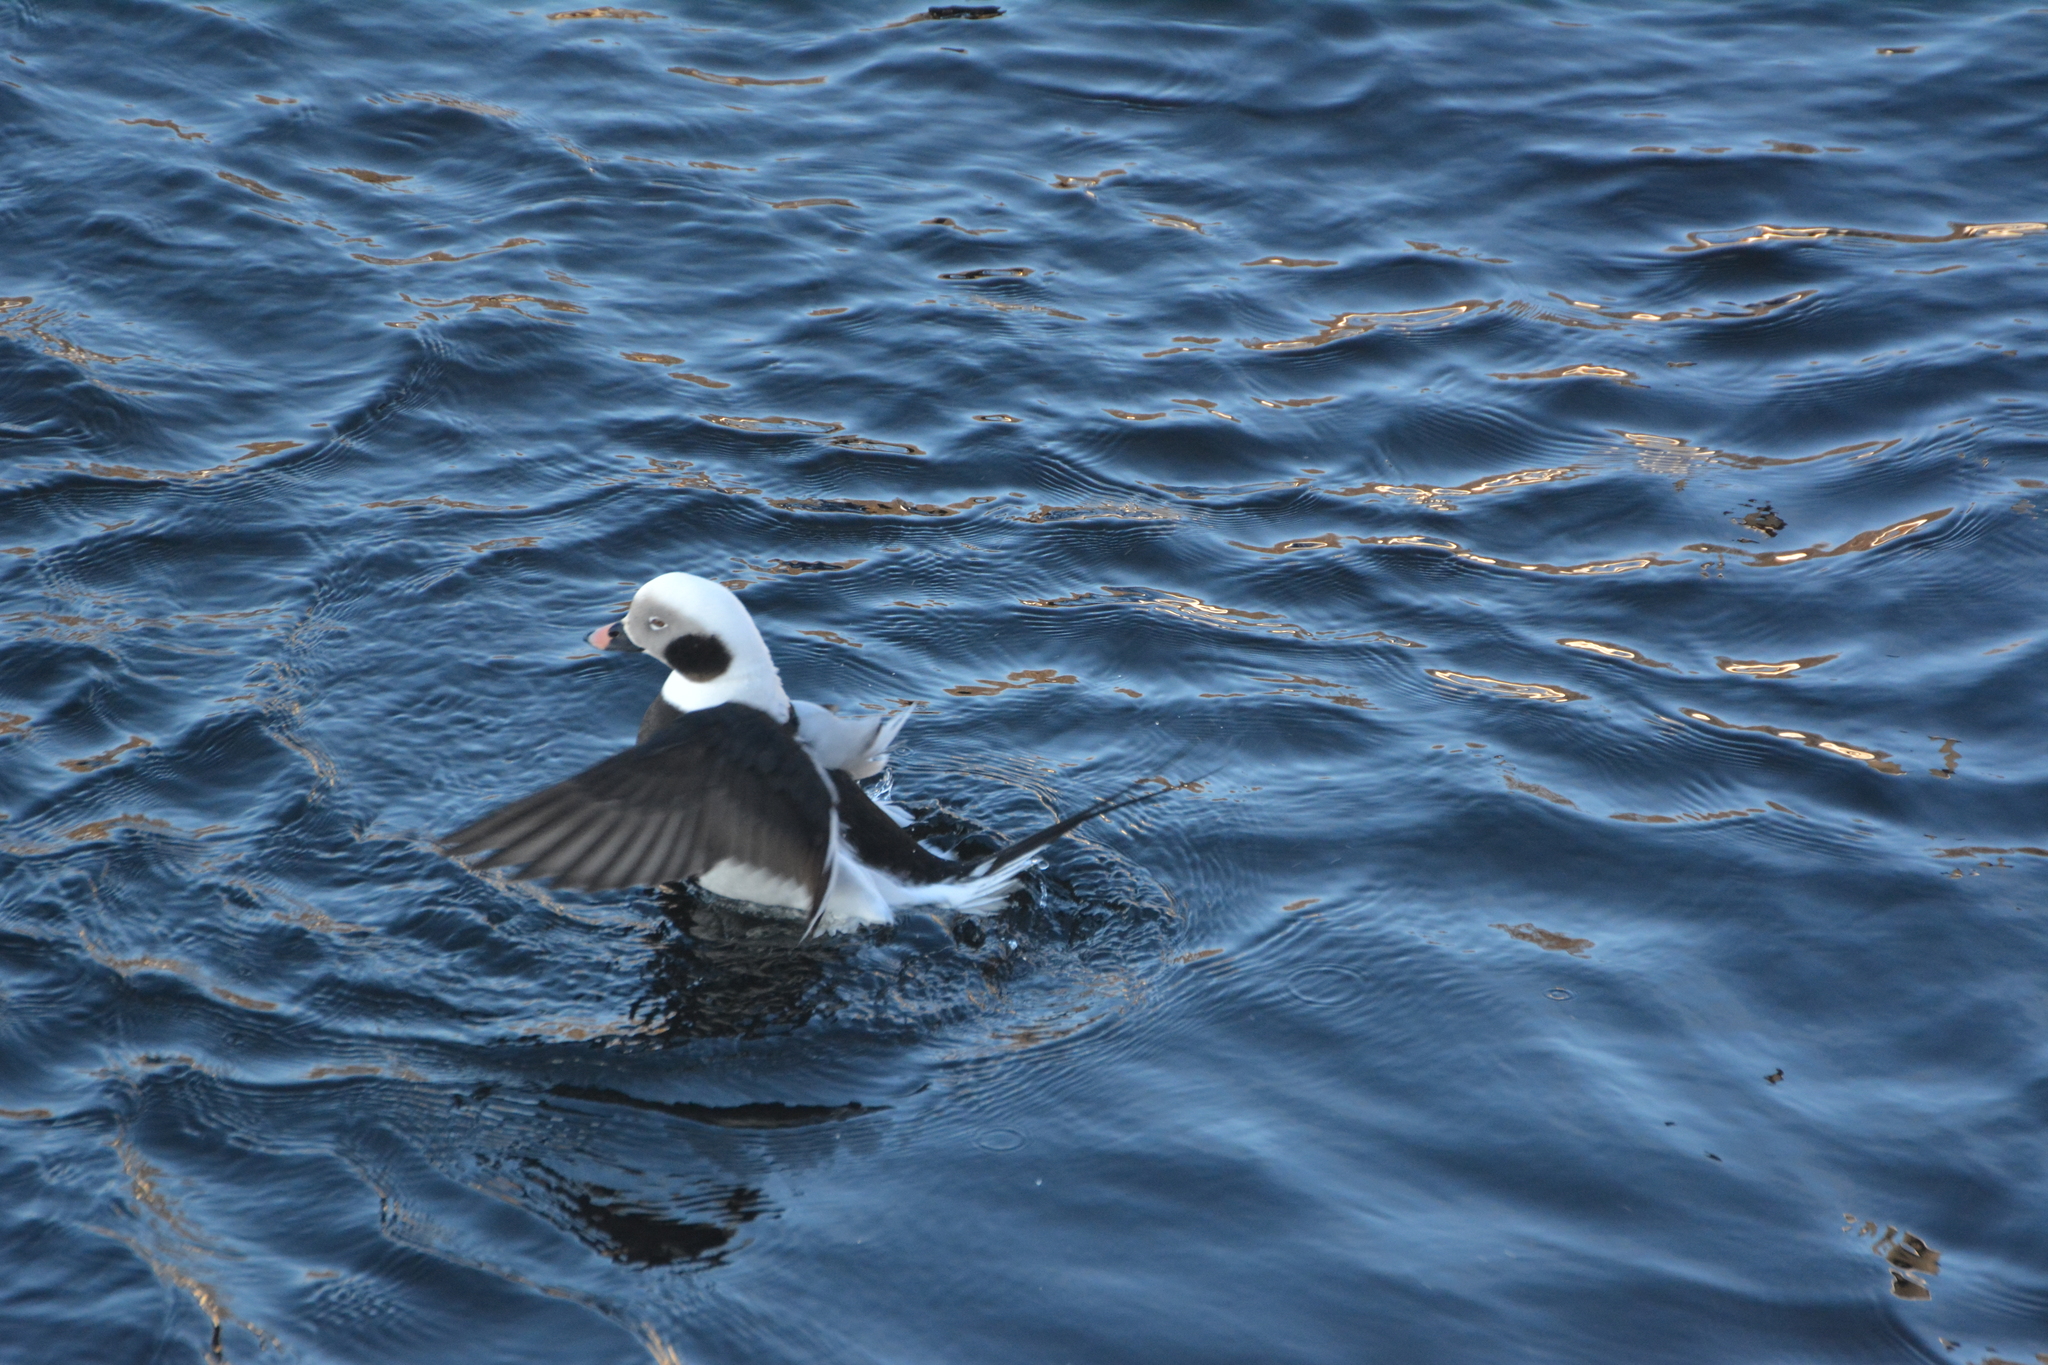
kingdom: Animalia
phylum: Chordata
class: Aves
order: Anseriformes
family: Anatidae
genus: Clangula
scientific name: Clangula hyemalis
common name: Long-tailed duck
